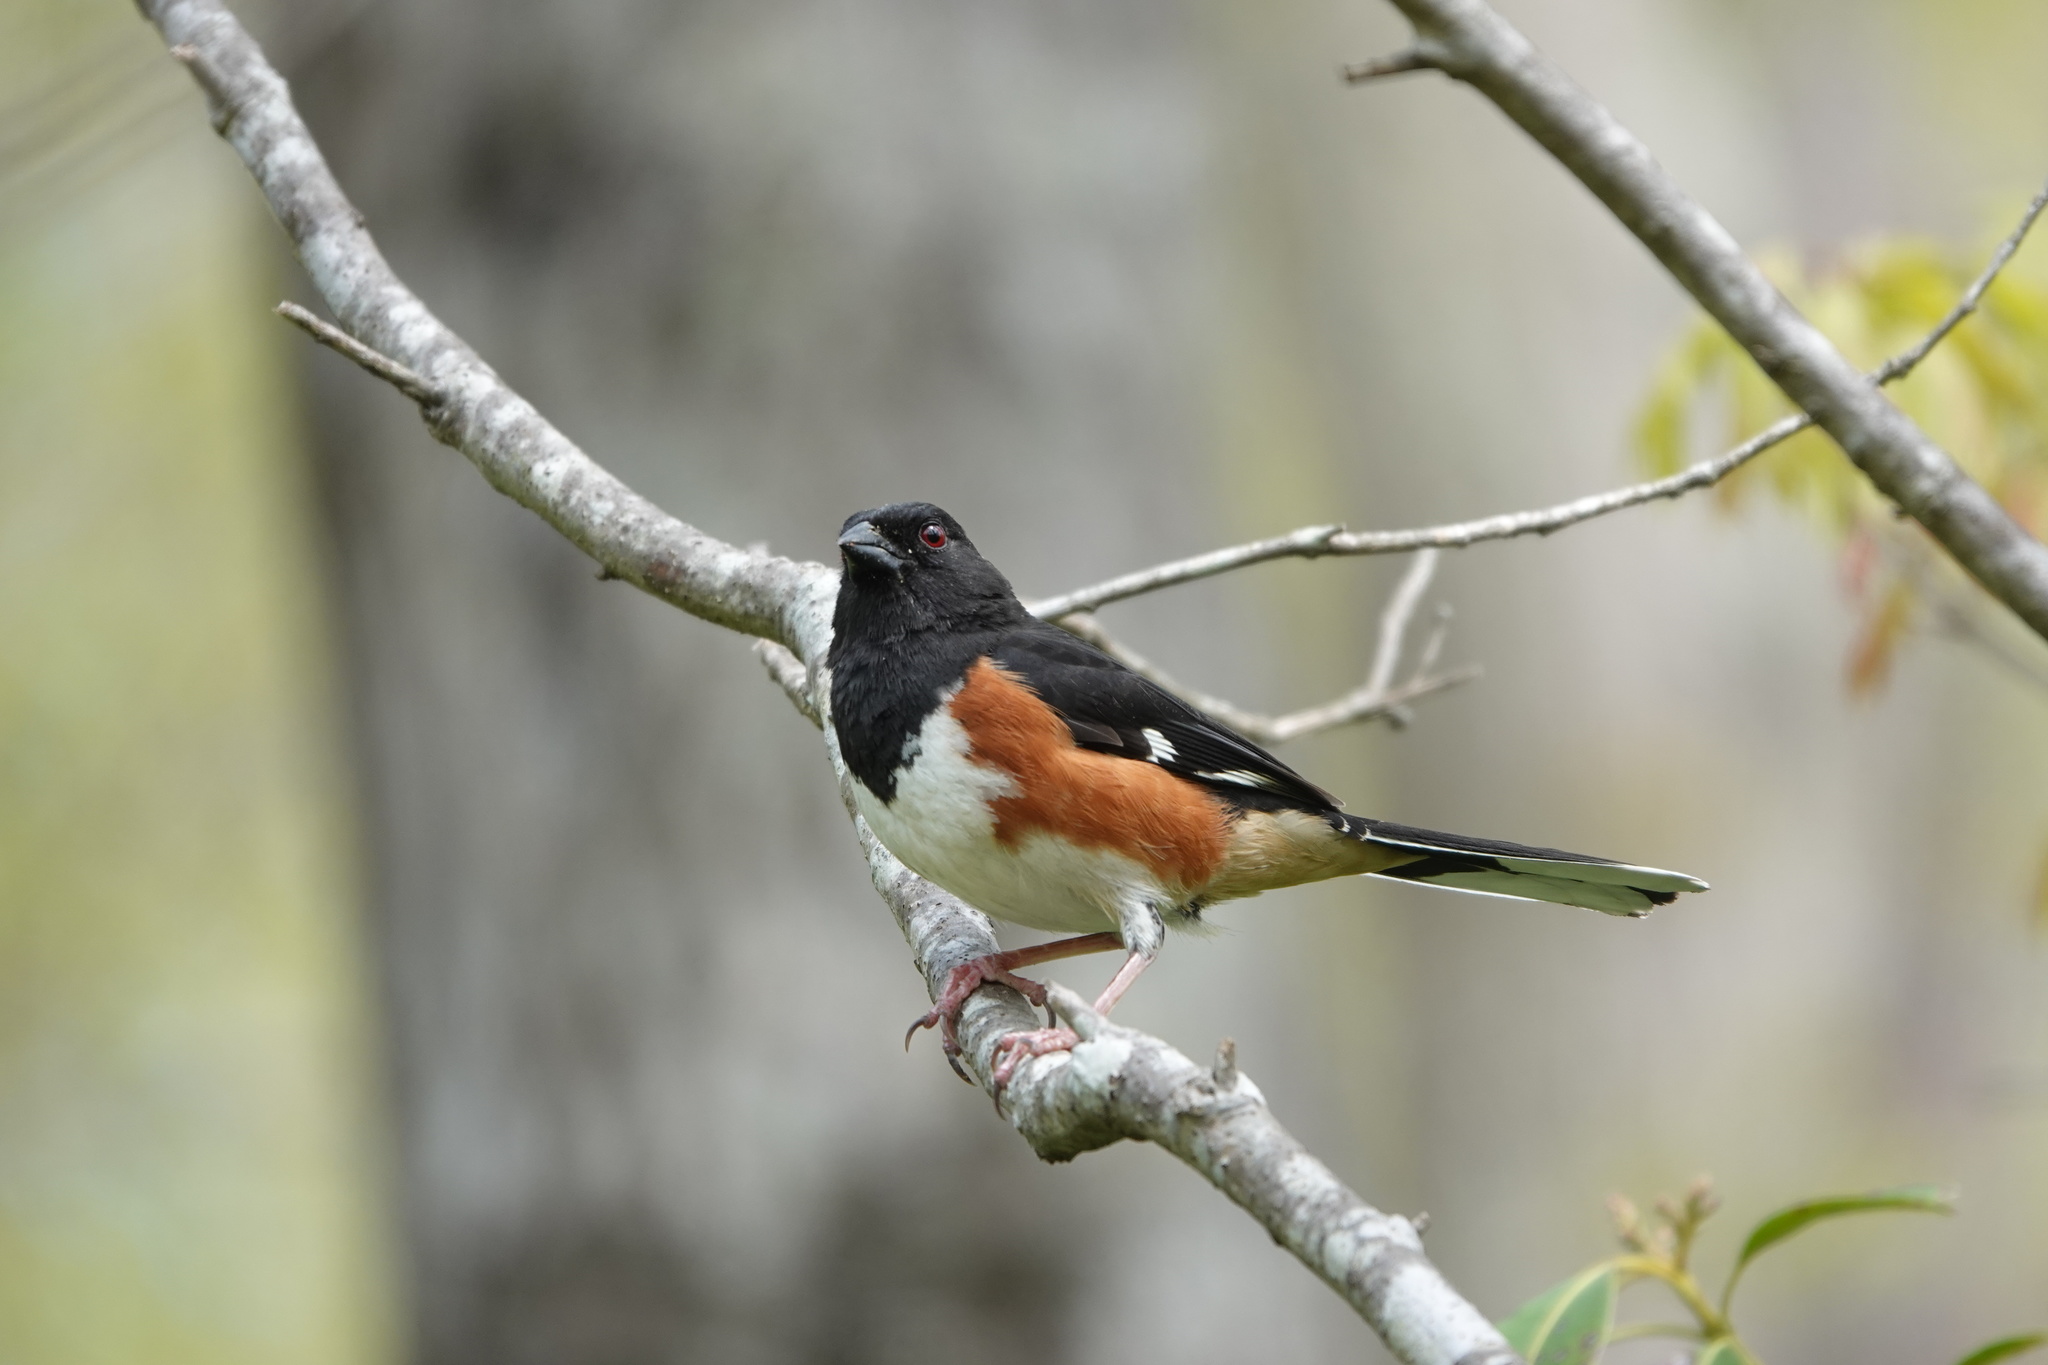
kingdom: Animalia
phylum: Chordata
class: Aves
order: Passeriformes
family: Passerellidae
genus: Pipilo
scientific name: Pipilo erythrophthalmus
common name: Eastern towhee
